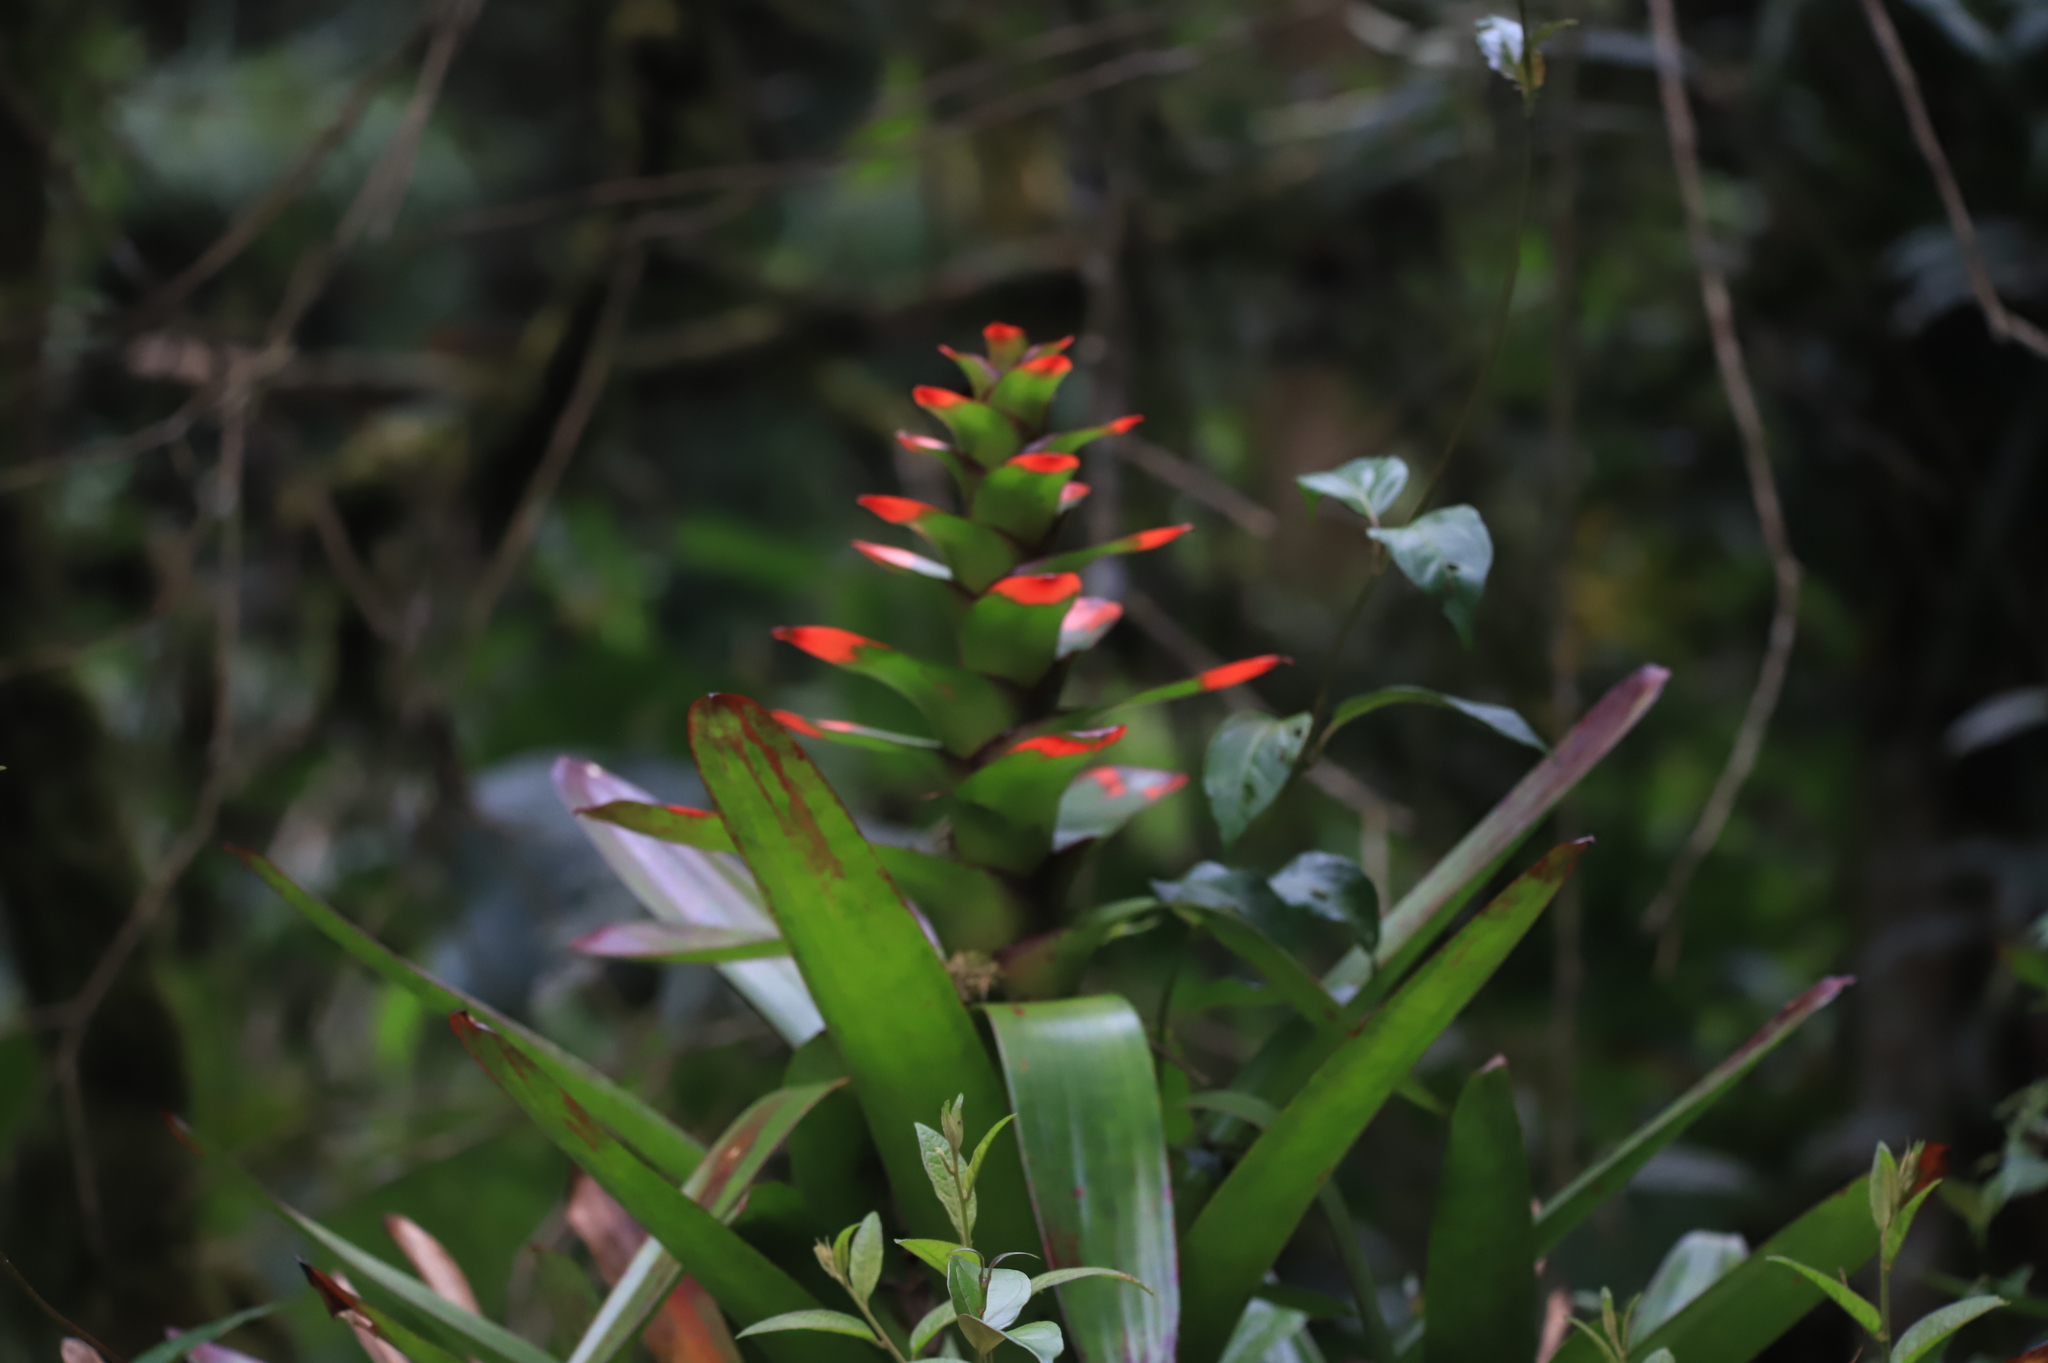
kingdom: Plantae
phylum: Tracheophyta
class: Liliopsida
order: Poales
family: Bromeliaceae
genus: Guzmania
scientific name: Guzmania gloriosa
